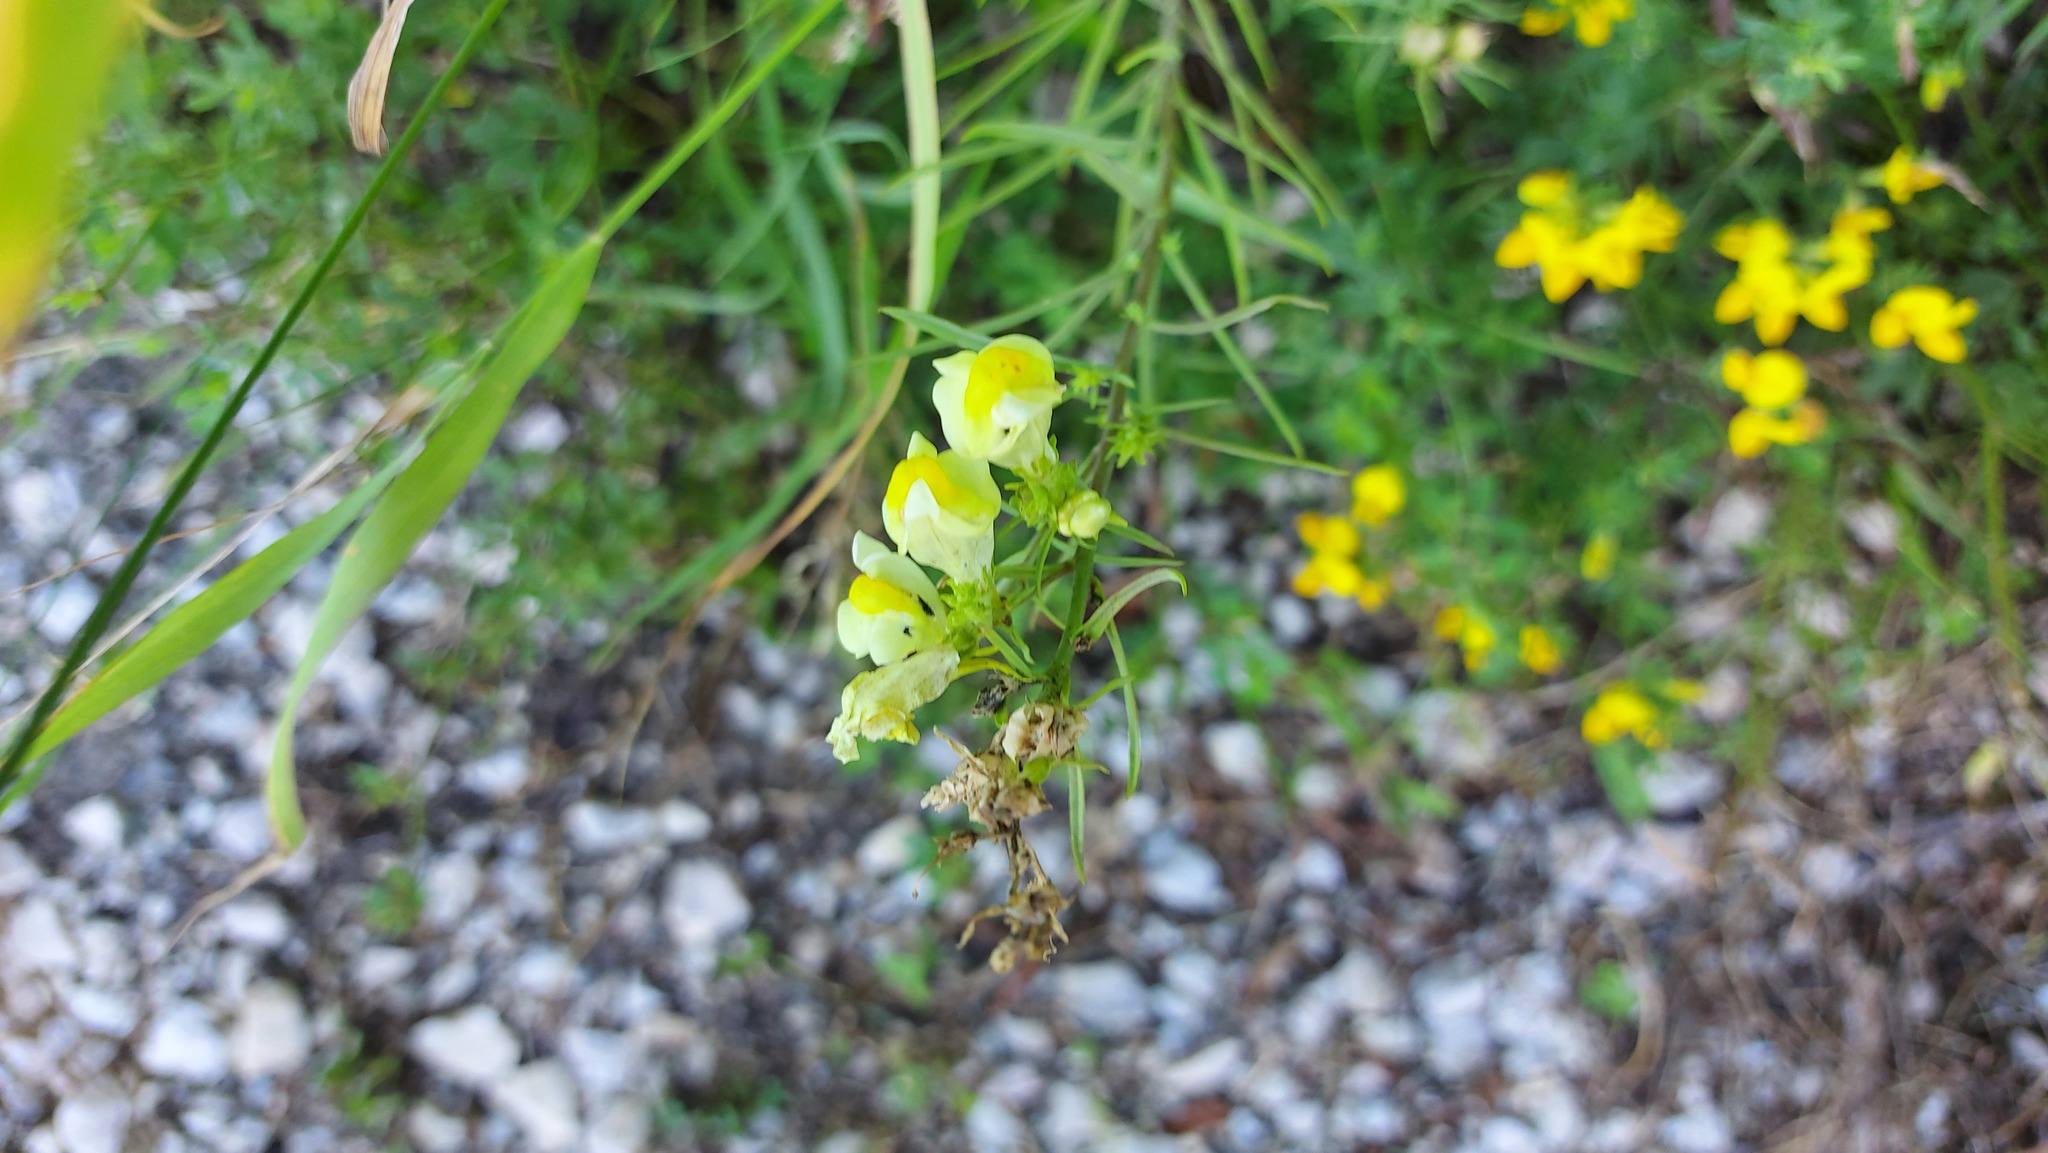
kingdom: Plantae
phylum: Tracheophyta
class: Magnoliopsida
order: Lamiales
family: Plantaginaceae
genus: Linaria
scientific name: Linaria vulgaris
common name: Butter and eggs
